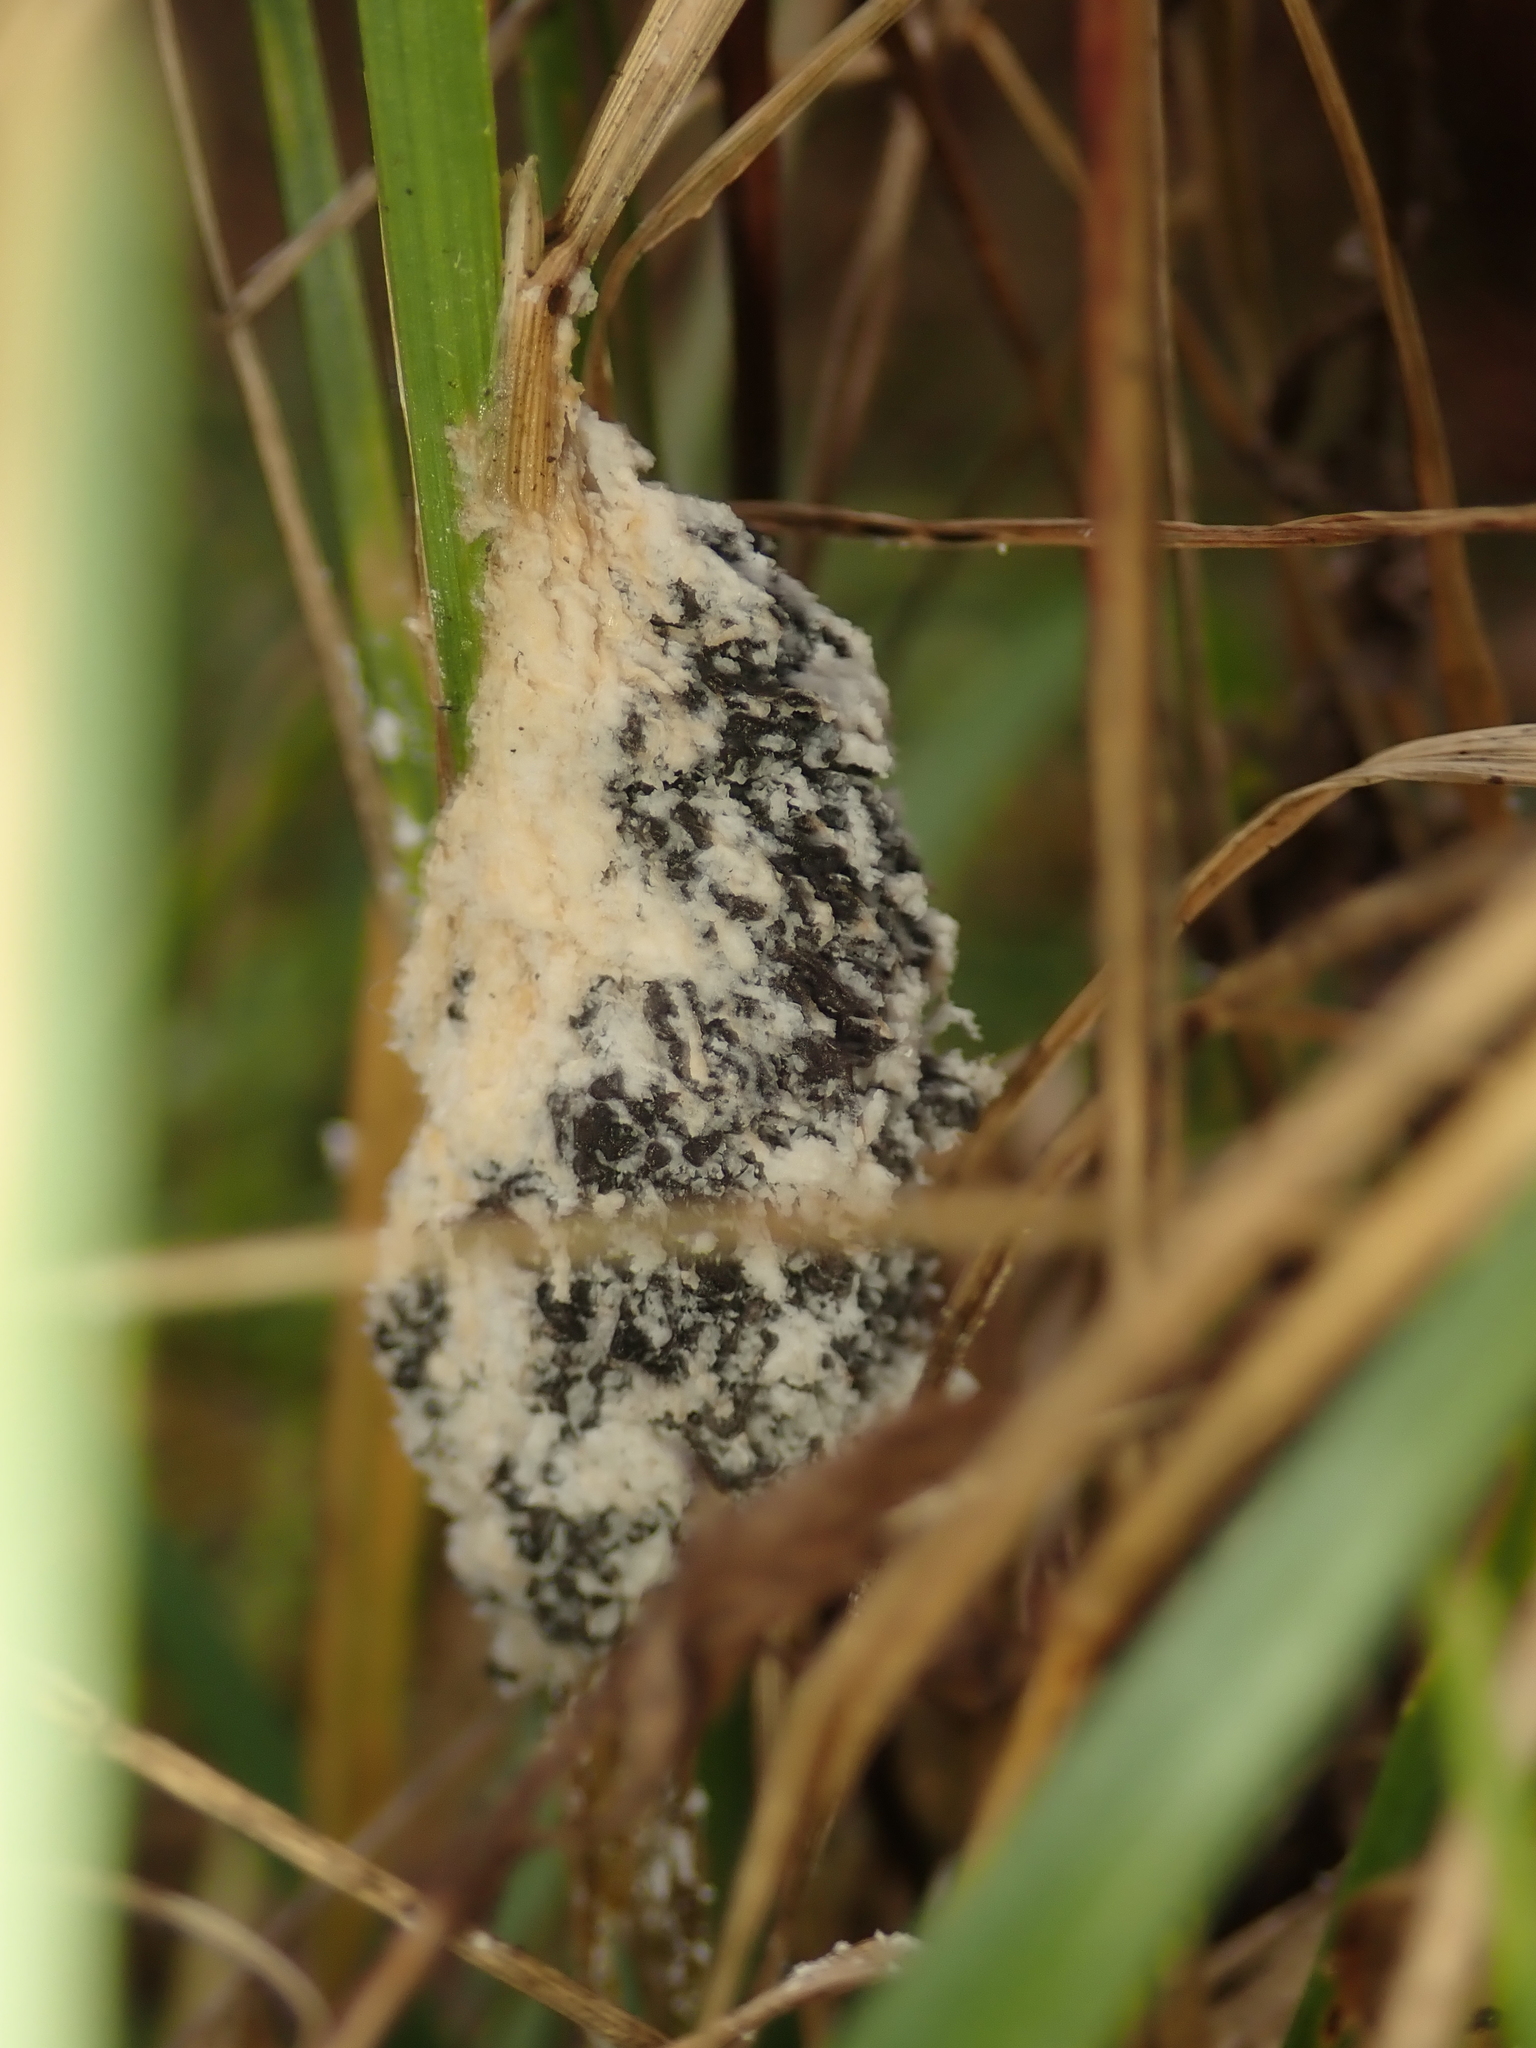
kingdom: Protozoa
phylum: Mycetozoa
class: Myxomycetes
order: Physarales
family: Physaraceae
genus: Didymium
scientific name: Didymium
